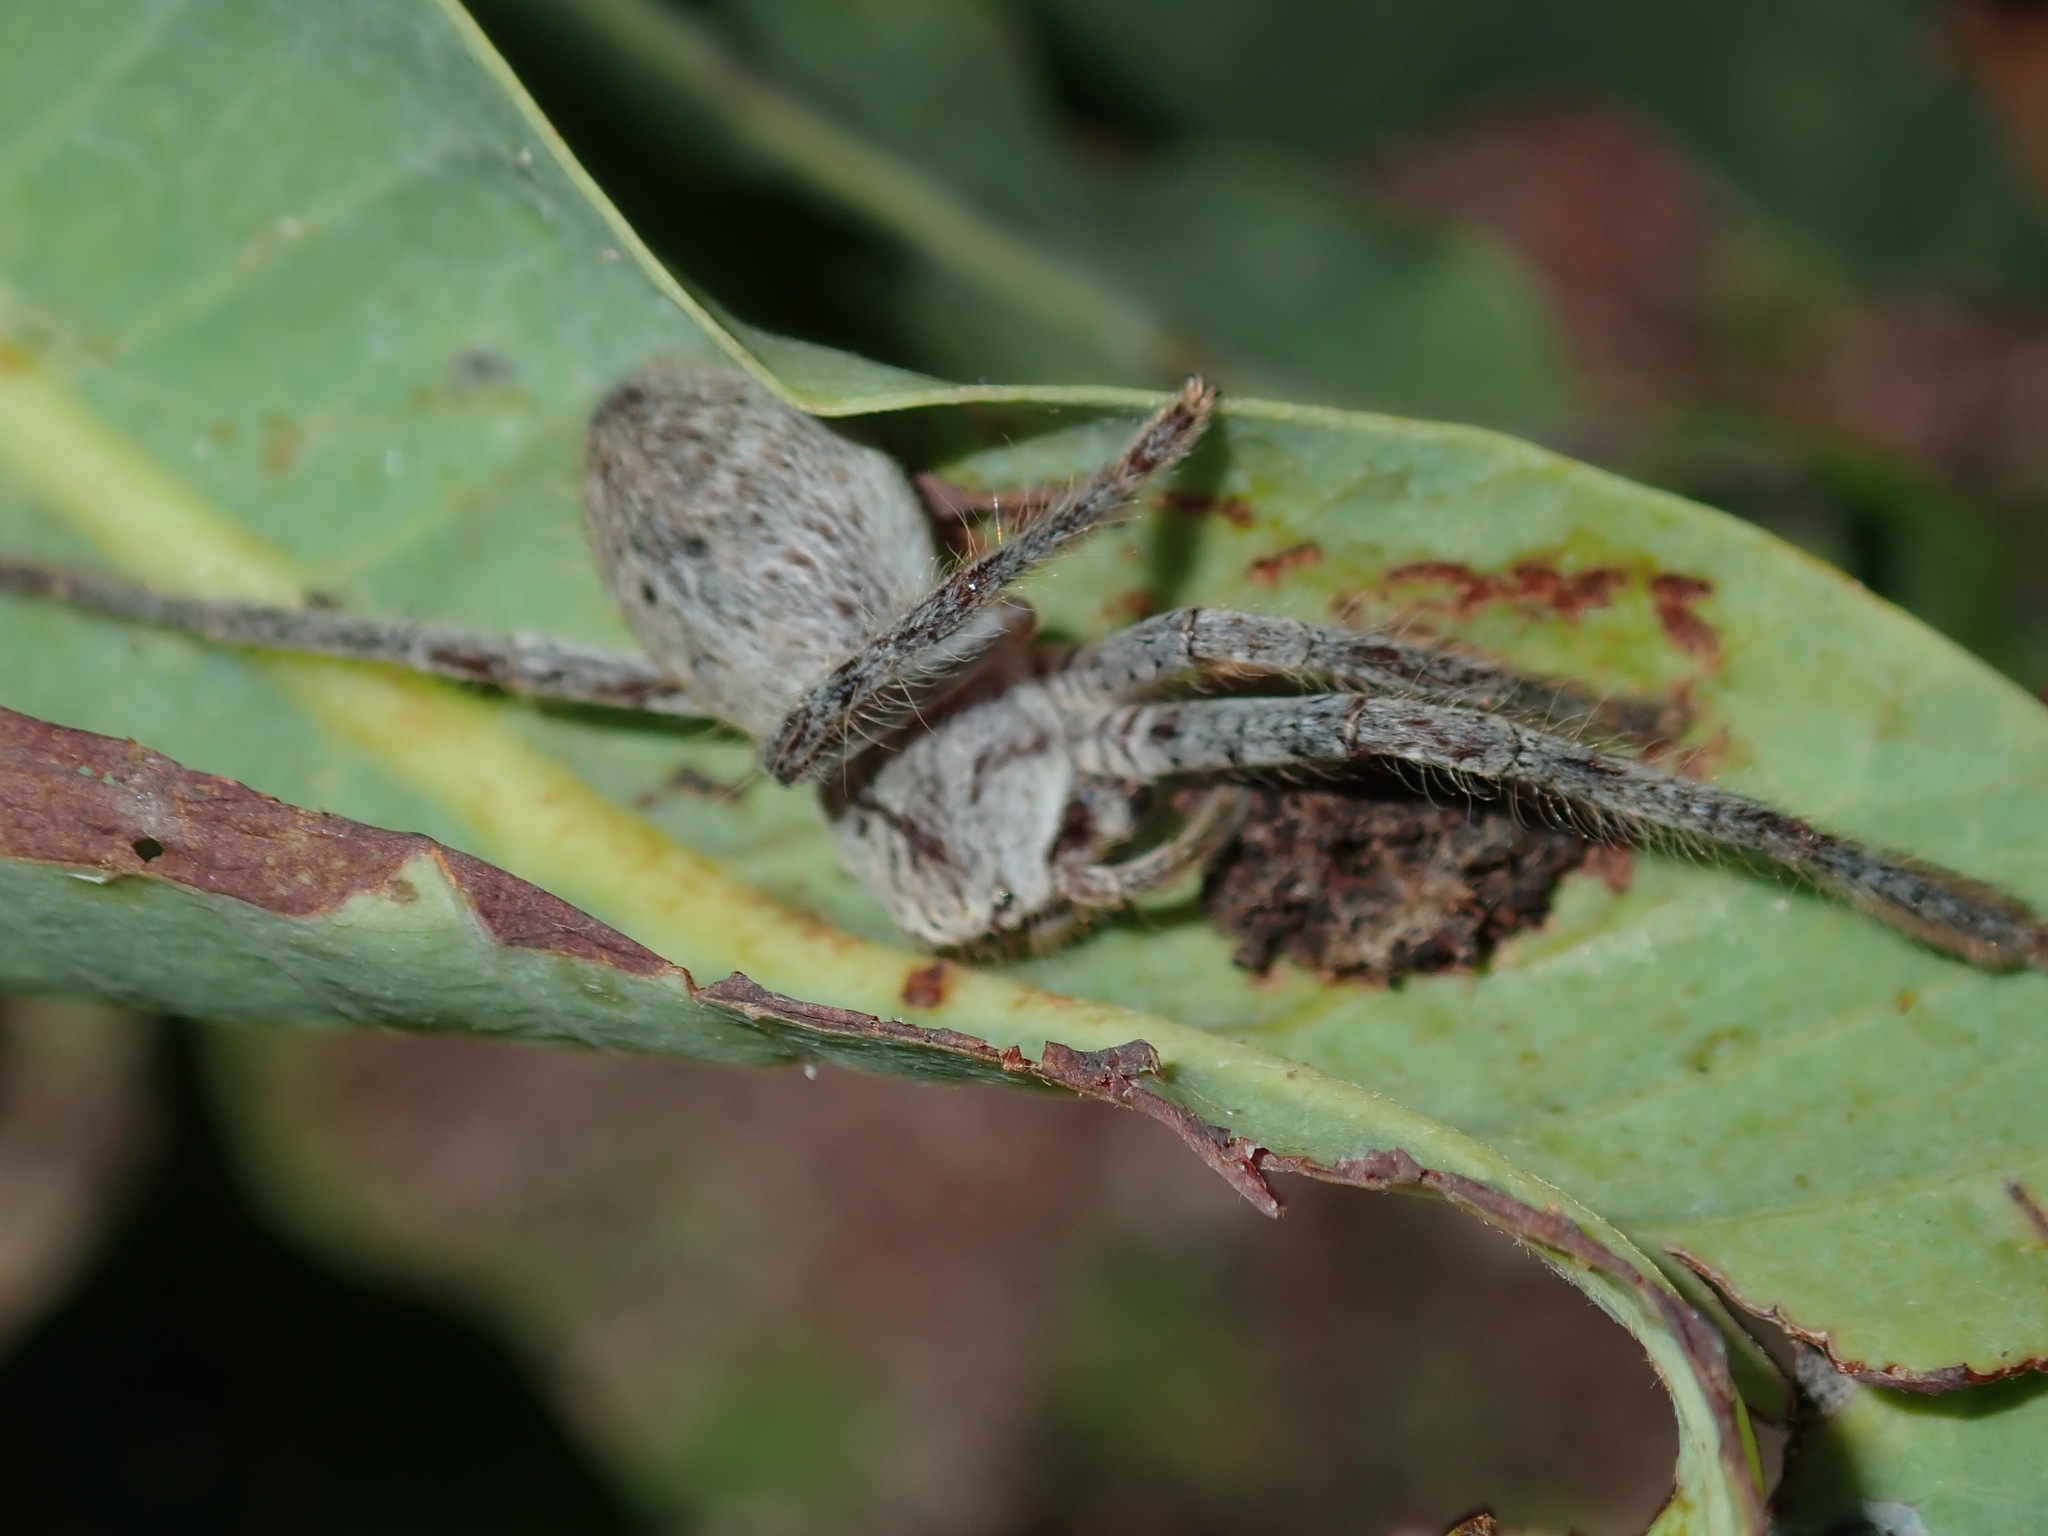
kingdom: Animalia
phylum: Arthropoda
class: Arachnida
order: Araneae
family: Sparassidae
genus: Isopedella
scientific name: Isopedella meraukensis
